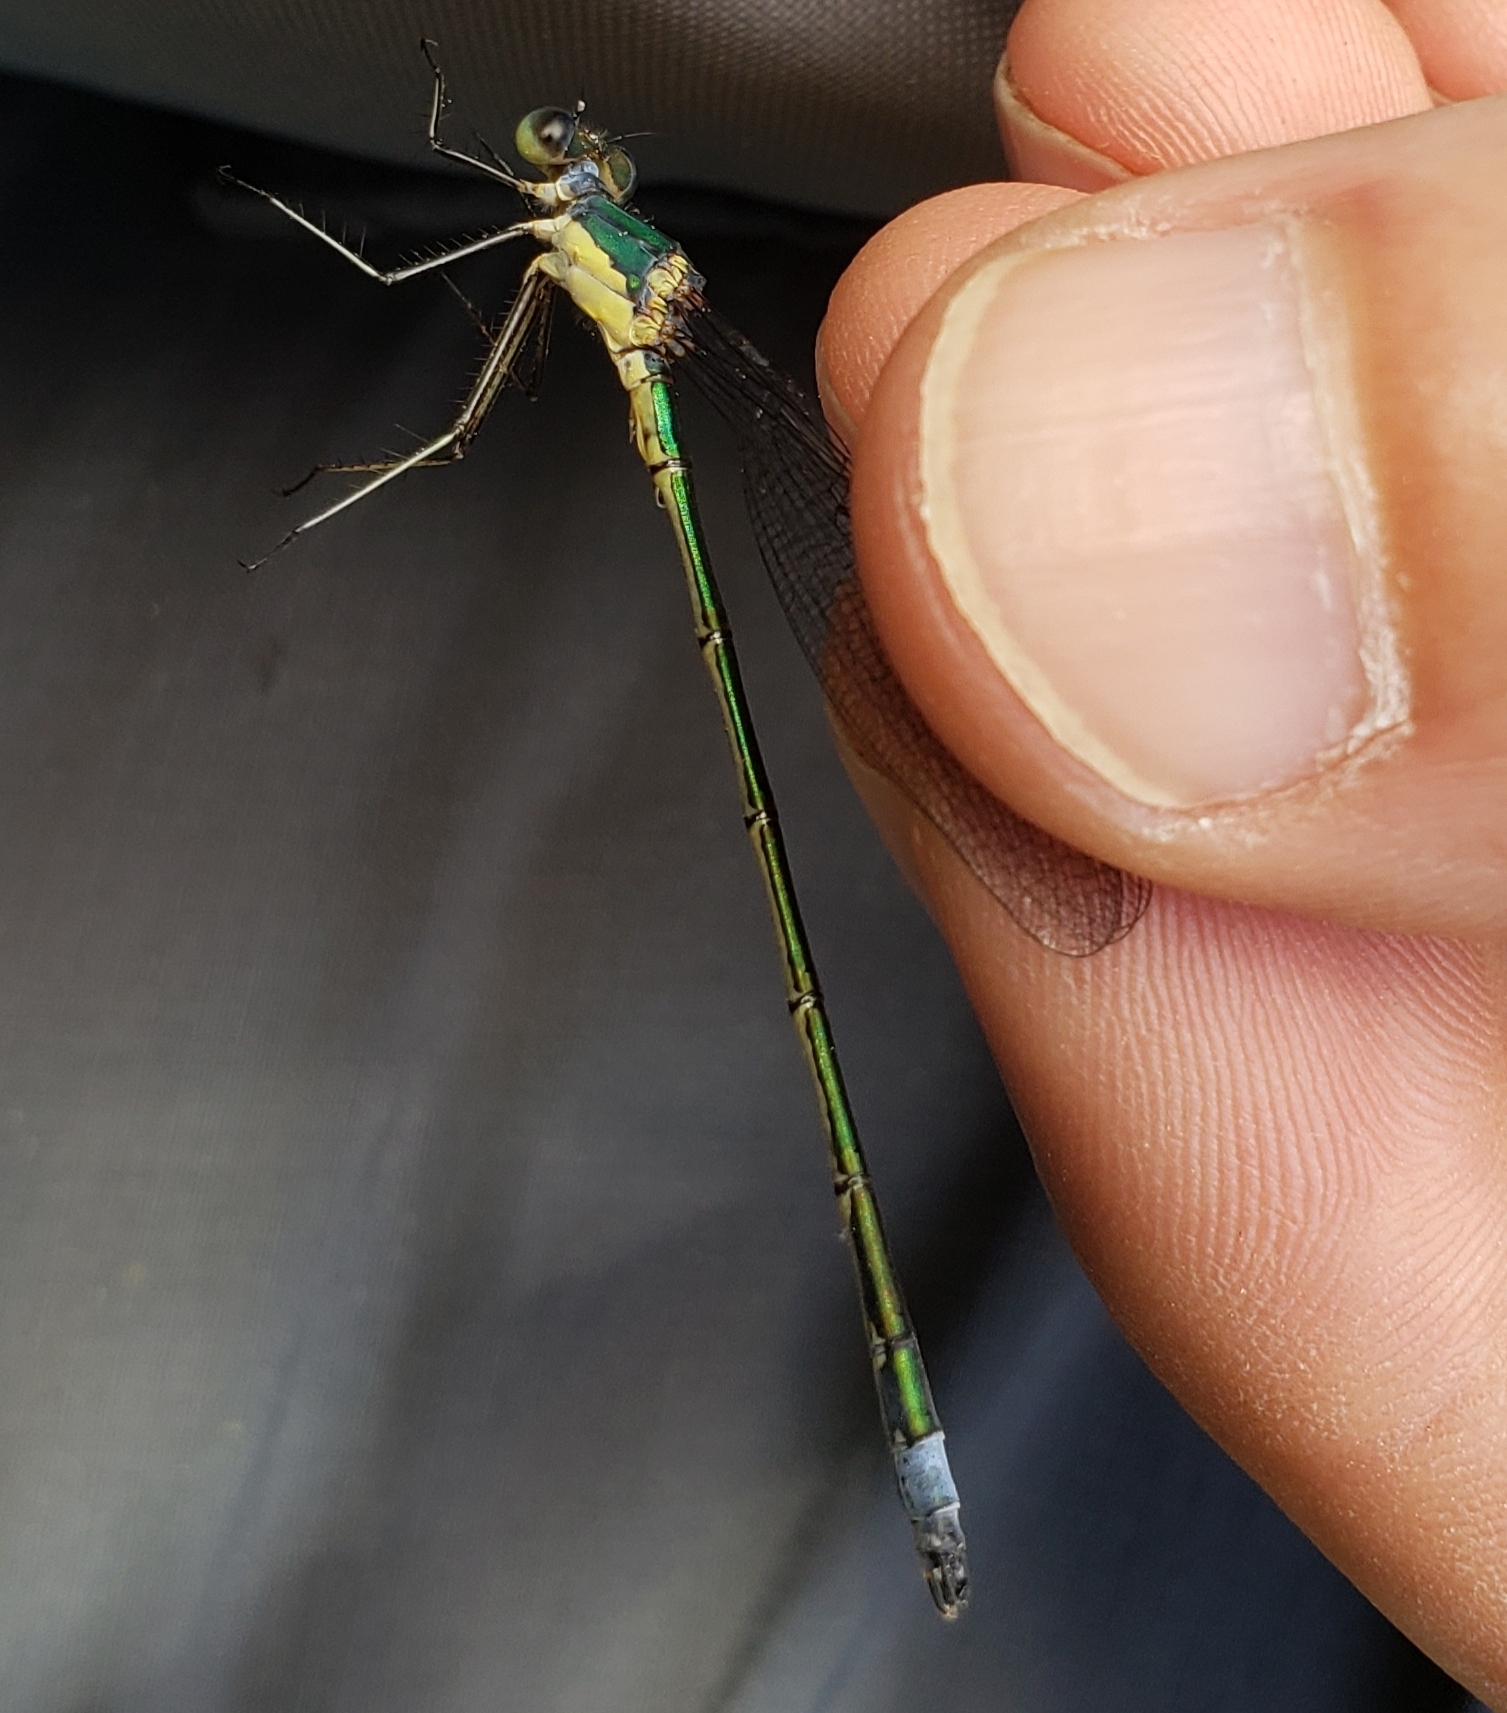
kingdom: Animalia
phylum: Arthropoda
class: Insecta
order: Odonata
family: Lestidae
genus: Lestes
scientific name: Lestes inaequalis
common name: Elegant spreadwing
